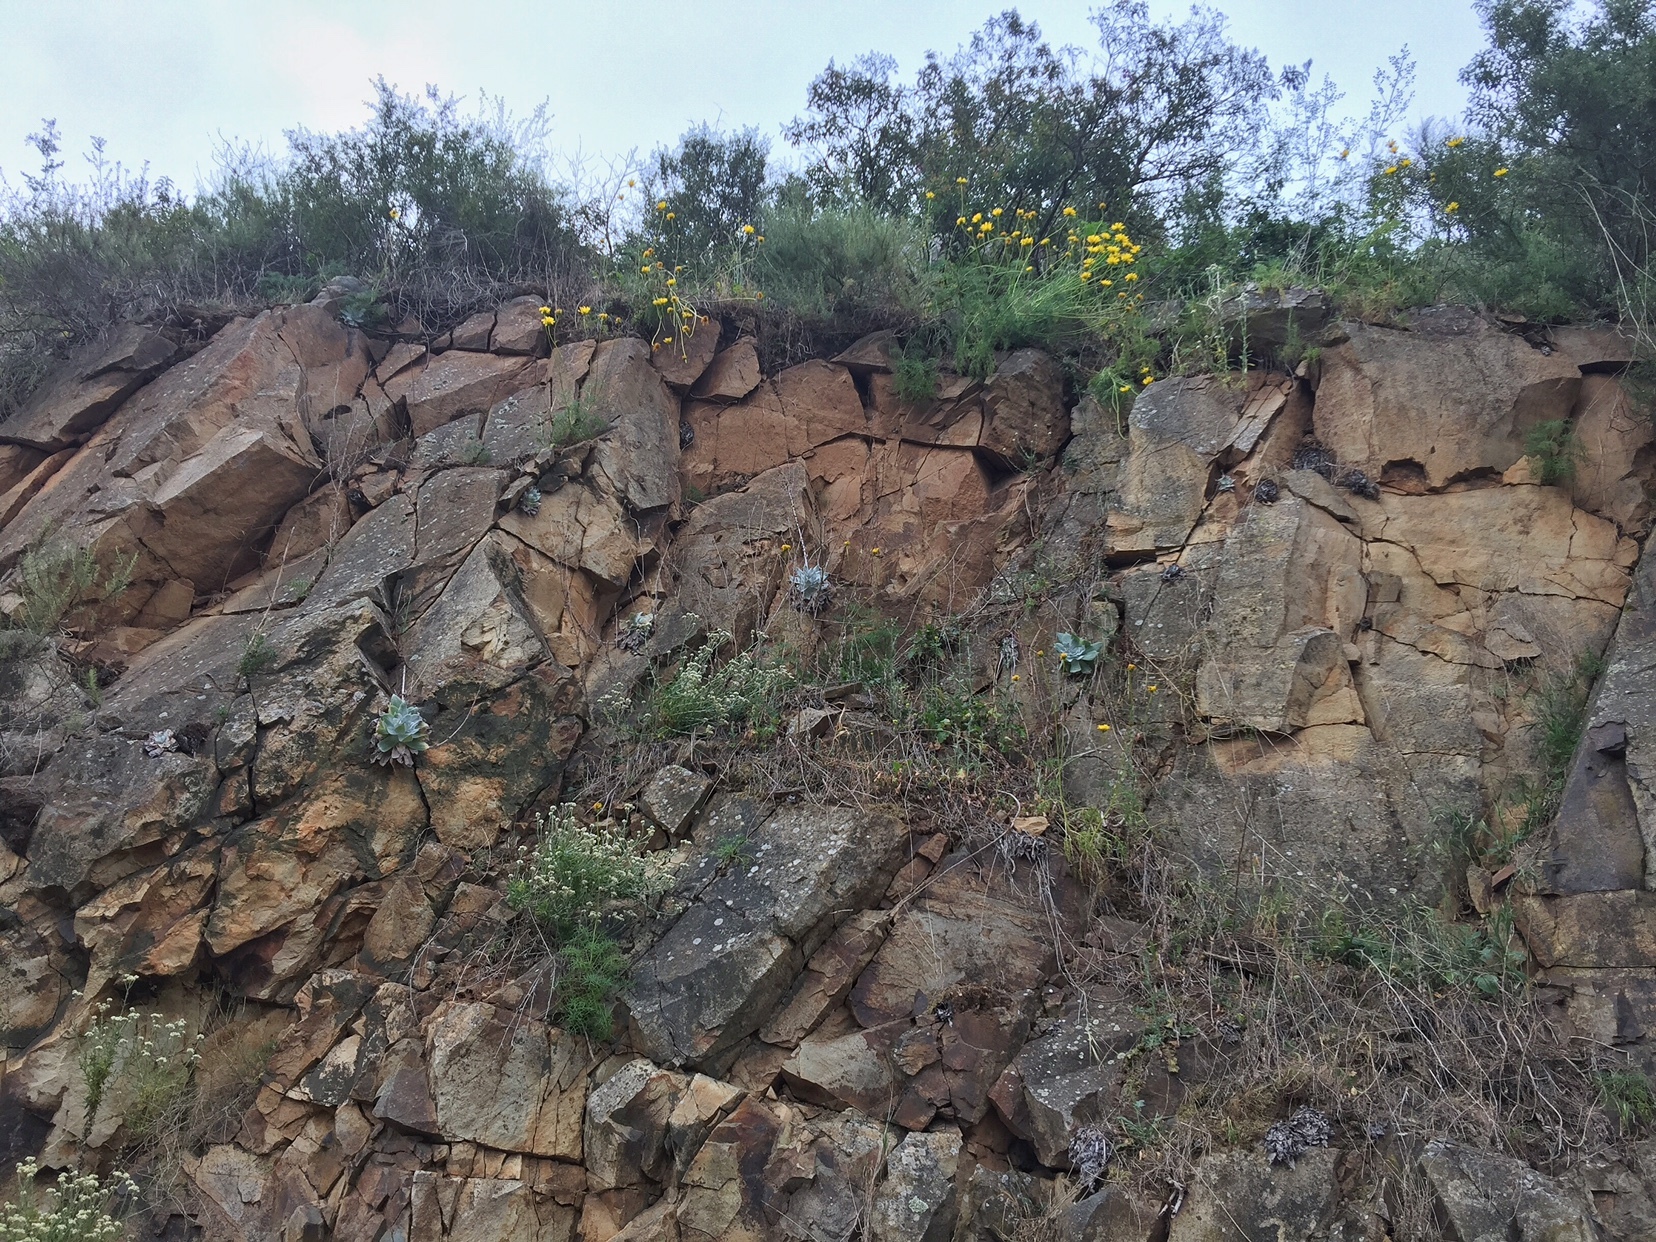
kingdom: Plantae
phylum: Tracheophyta
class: Magnoliopsida
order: Asterales
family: Asteraceae
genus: Coreopsis
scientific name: Coreopsis maritima
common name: Sea-dahlia
